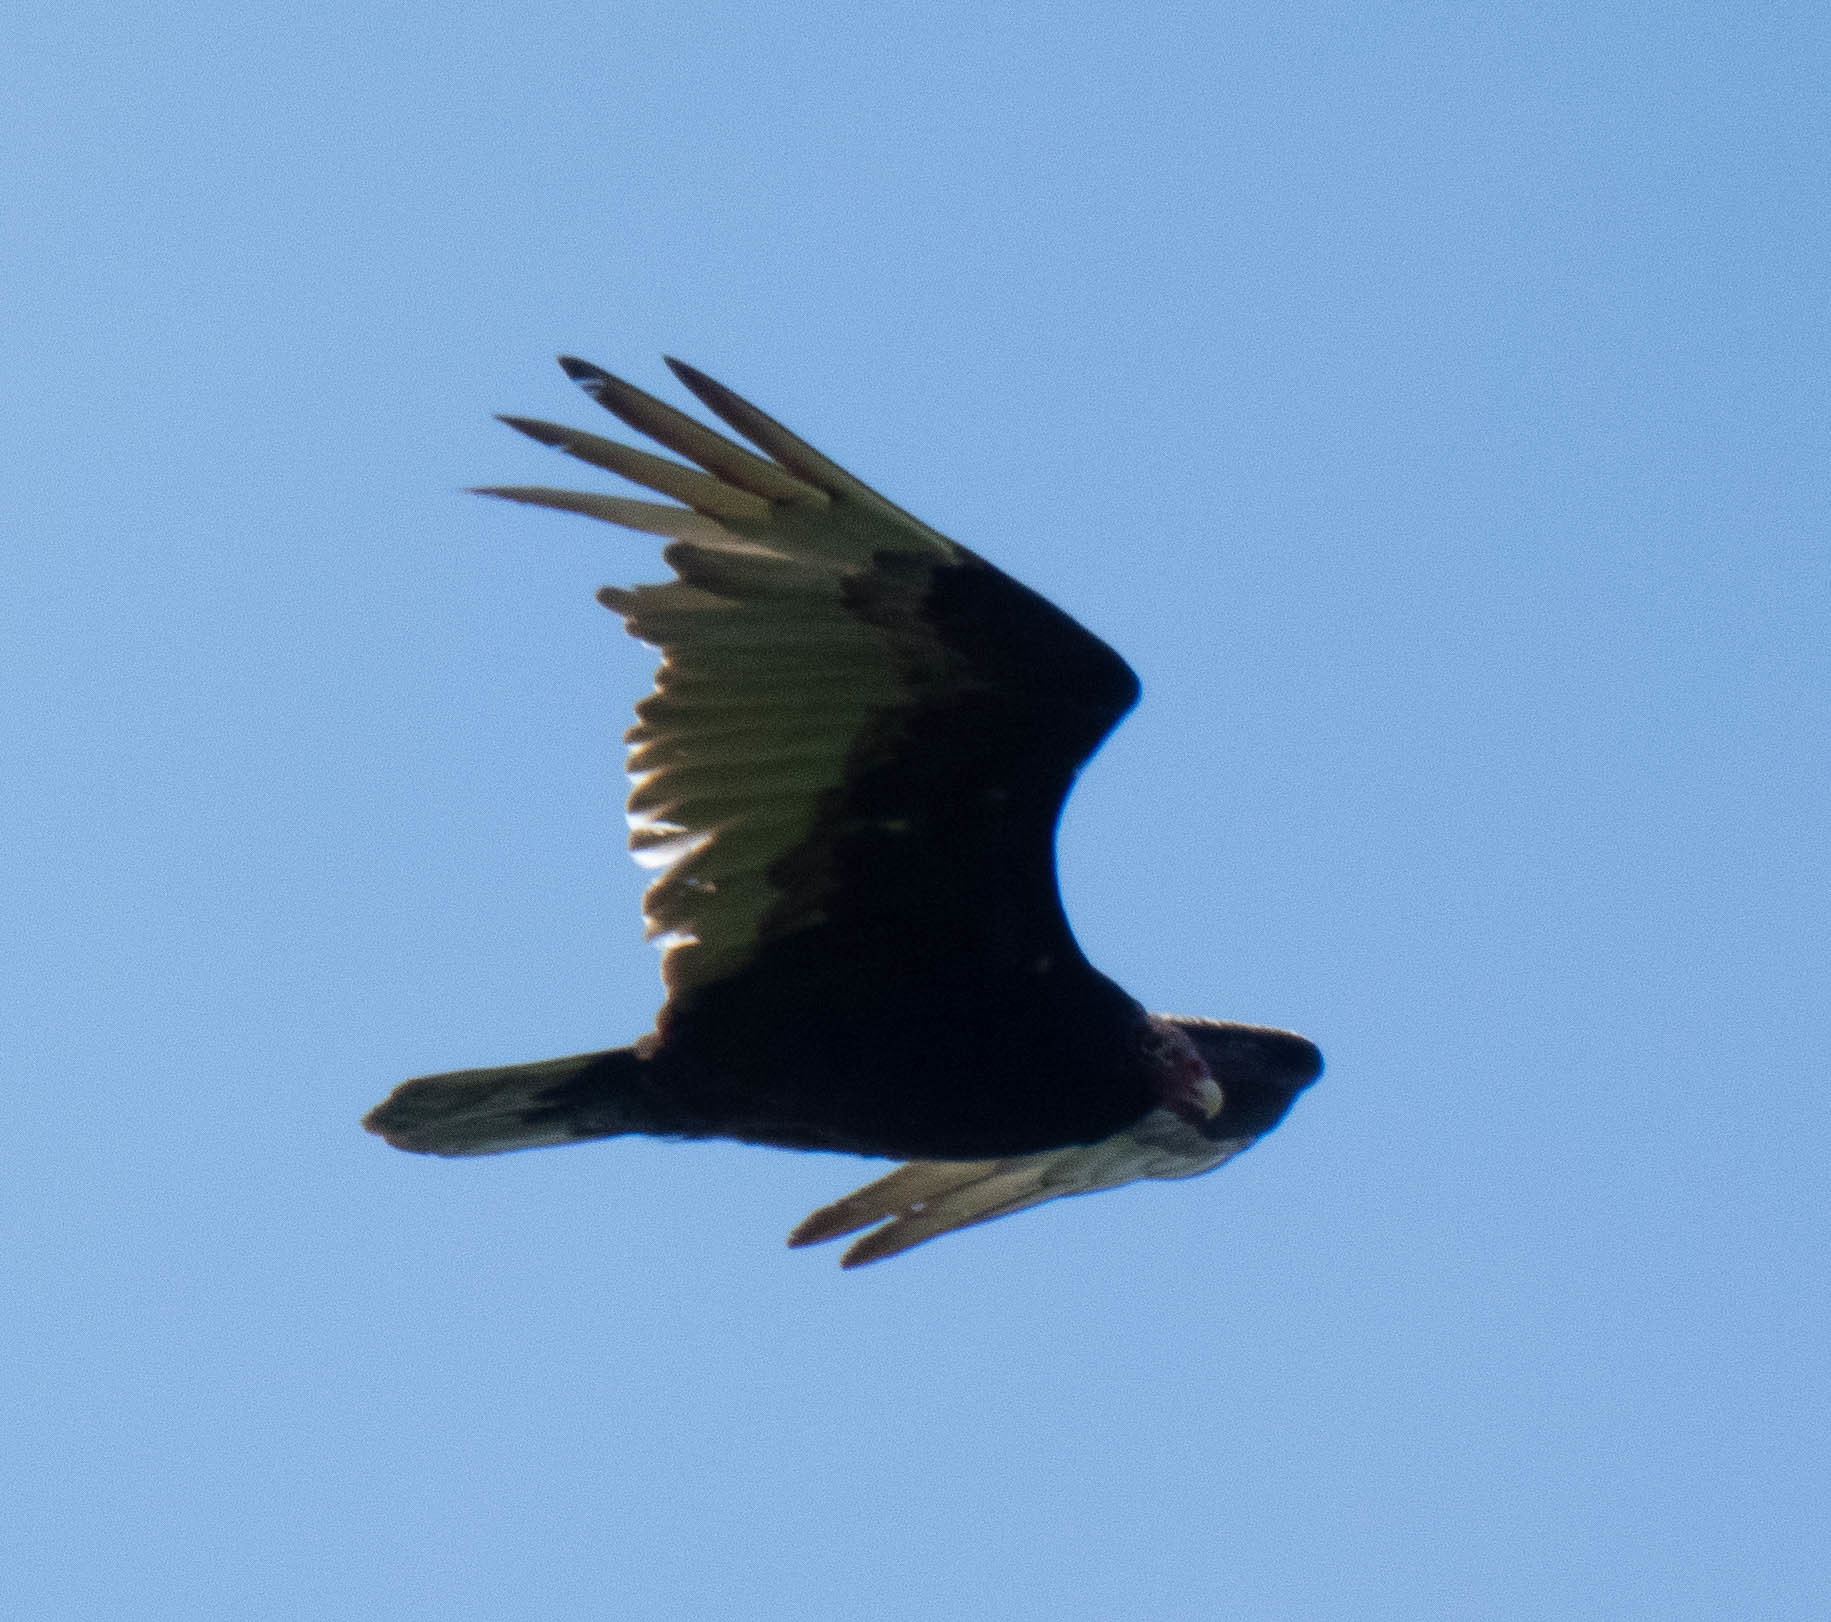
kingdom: Animalia
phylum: Chordata
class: Aves
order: Accipitriformes
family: Cathartidae
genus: Cathartes
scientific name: Cathartes aura
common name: Turkey vulture
